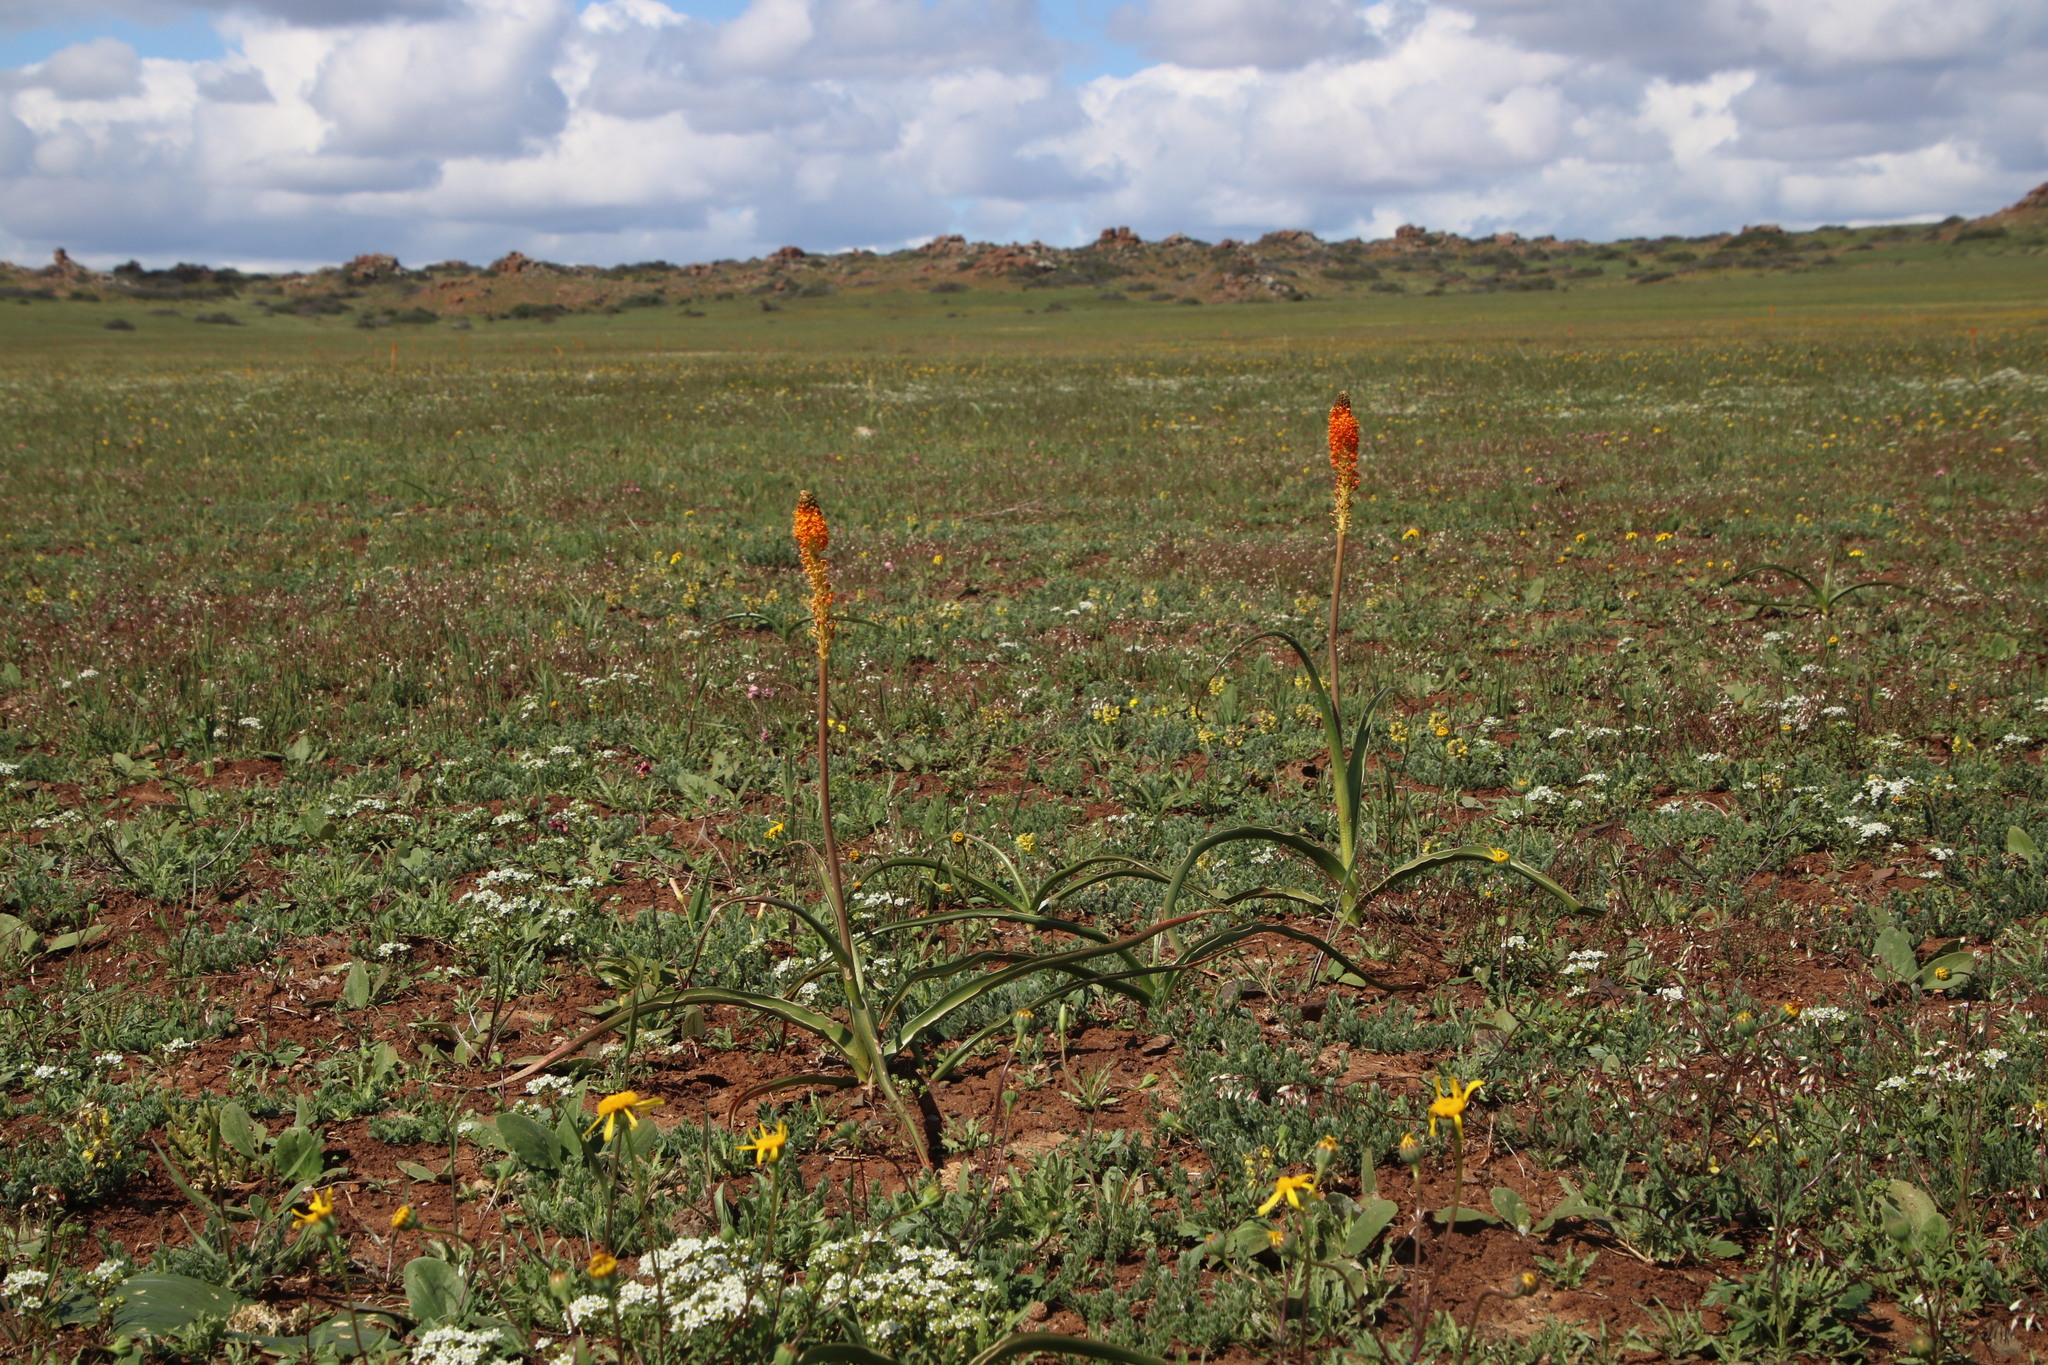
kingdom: Plantae
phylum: Tracheophyta
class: Liliopsida
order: Asparagales
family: Asphodelaceae
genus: Bulbinella
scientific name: Bulbinella latifolia
